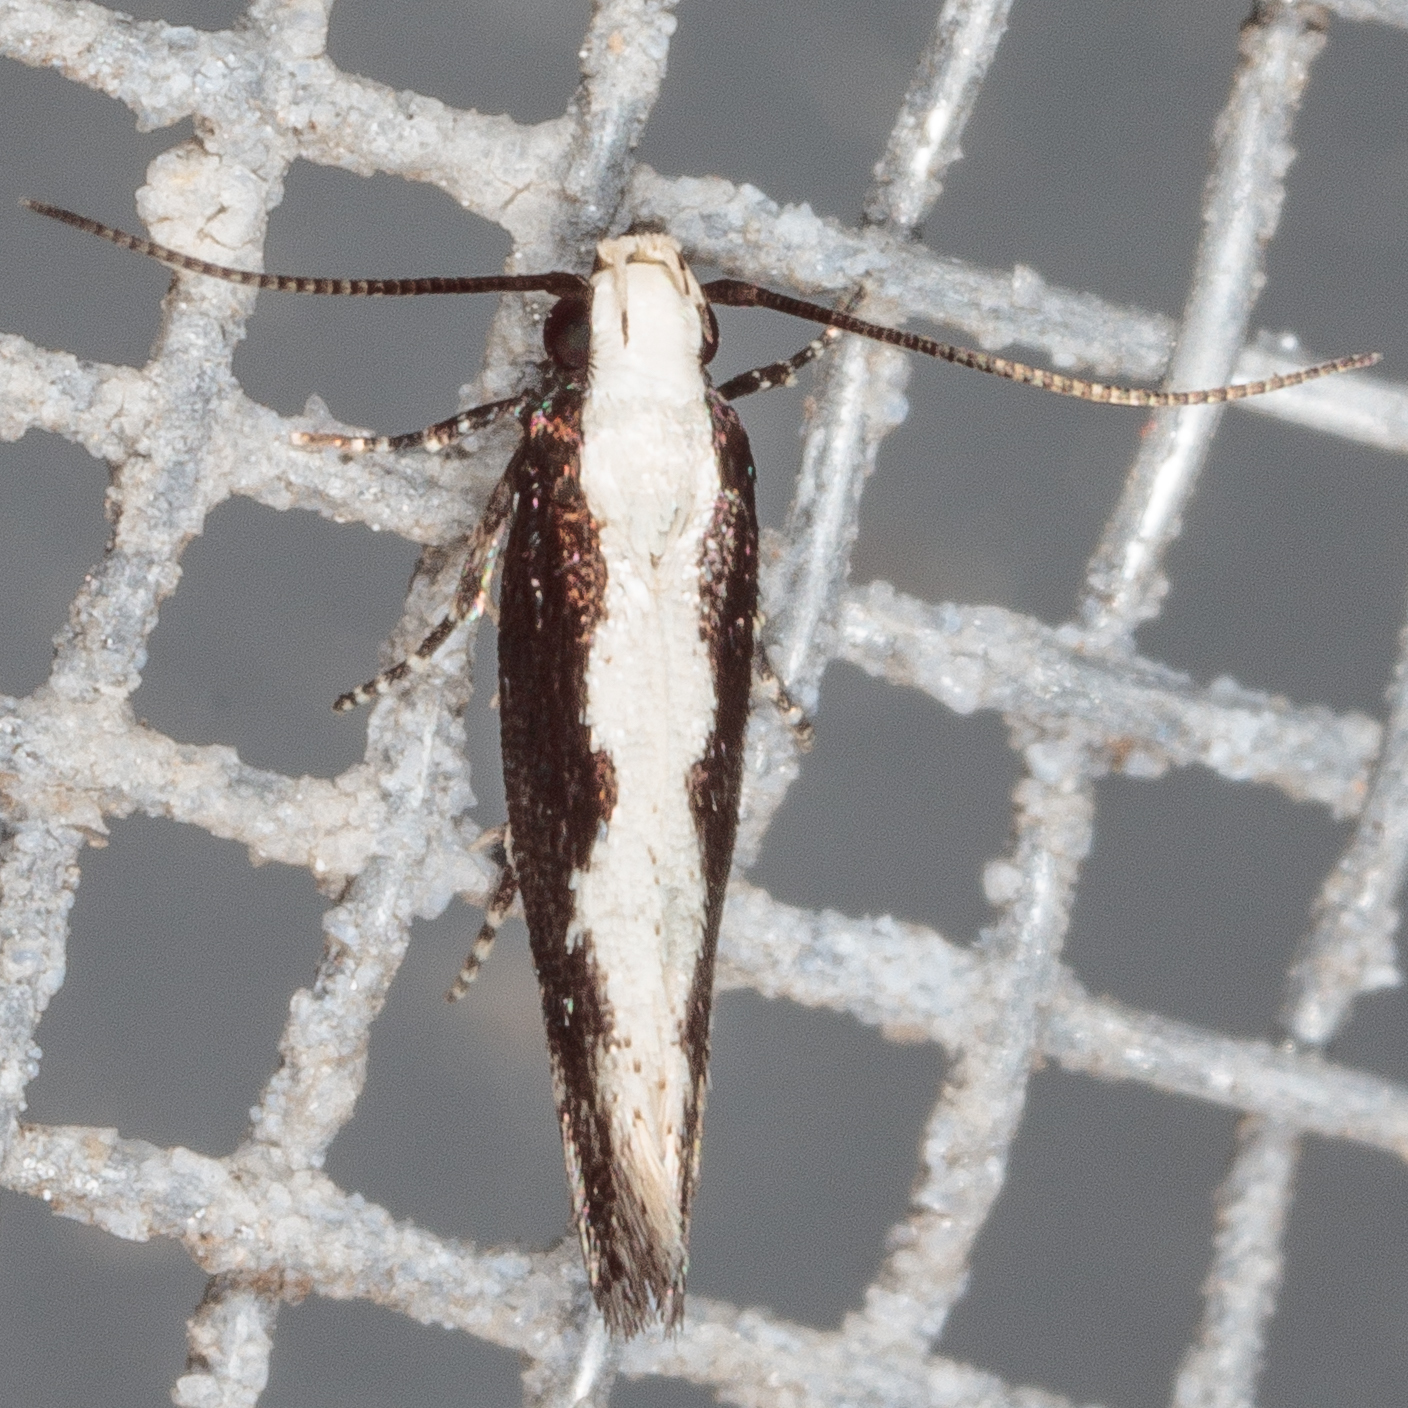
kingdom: Animalia
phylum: Arthropoda
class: Insecta
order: Lepidoptera
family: Gelechiidae
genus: Agnippe
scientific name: Agnippe prunifoliella
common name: Skunk twirler
